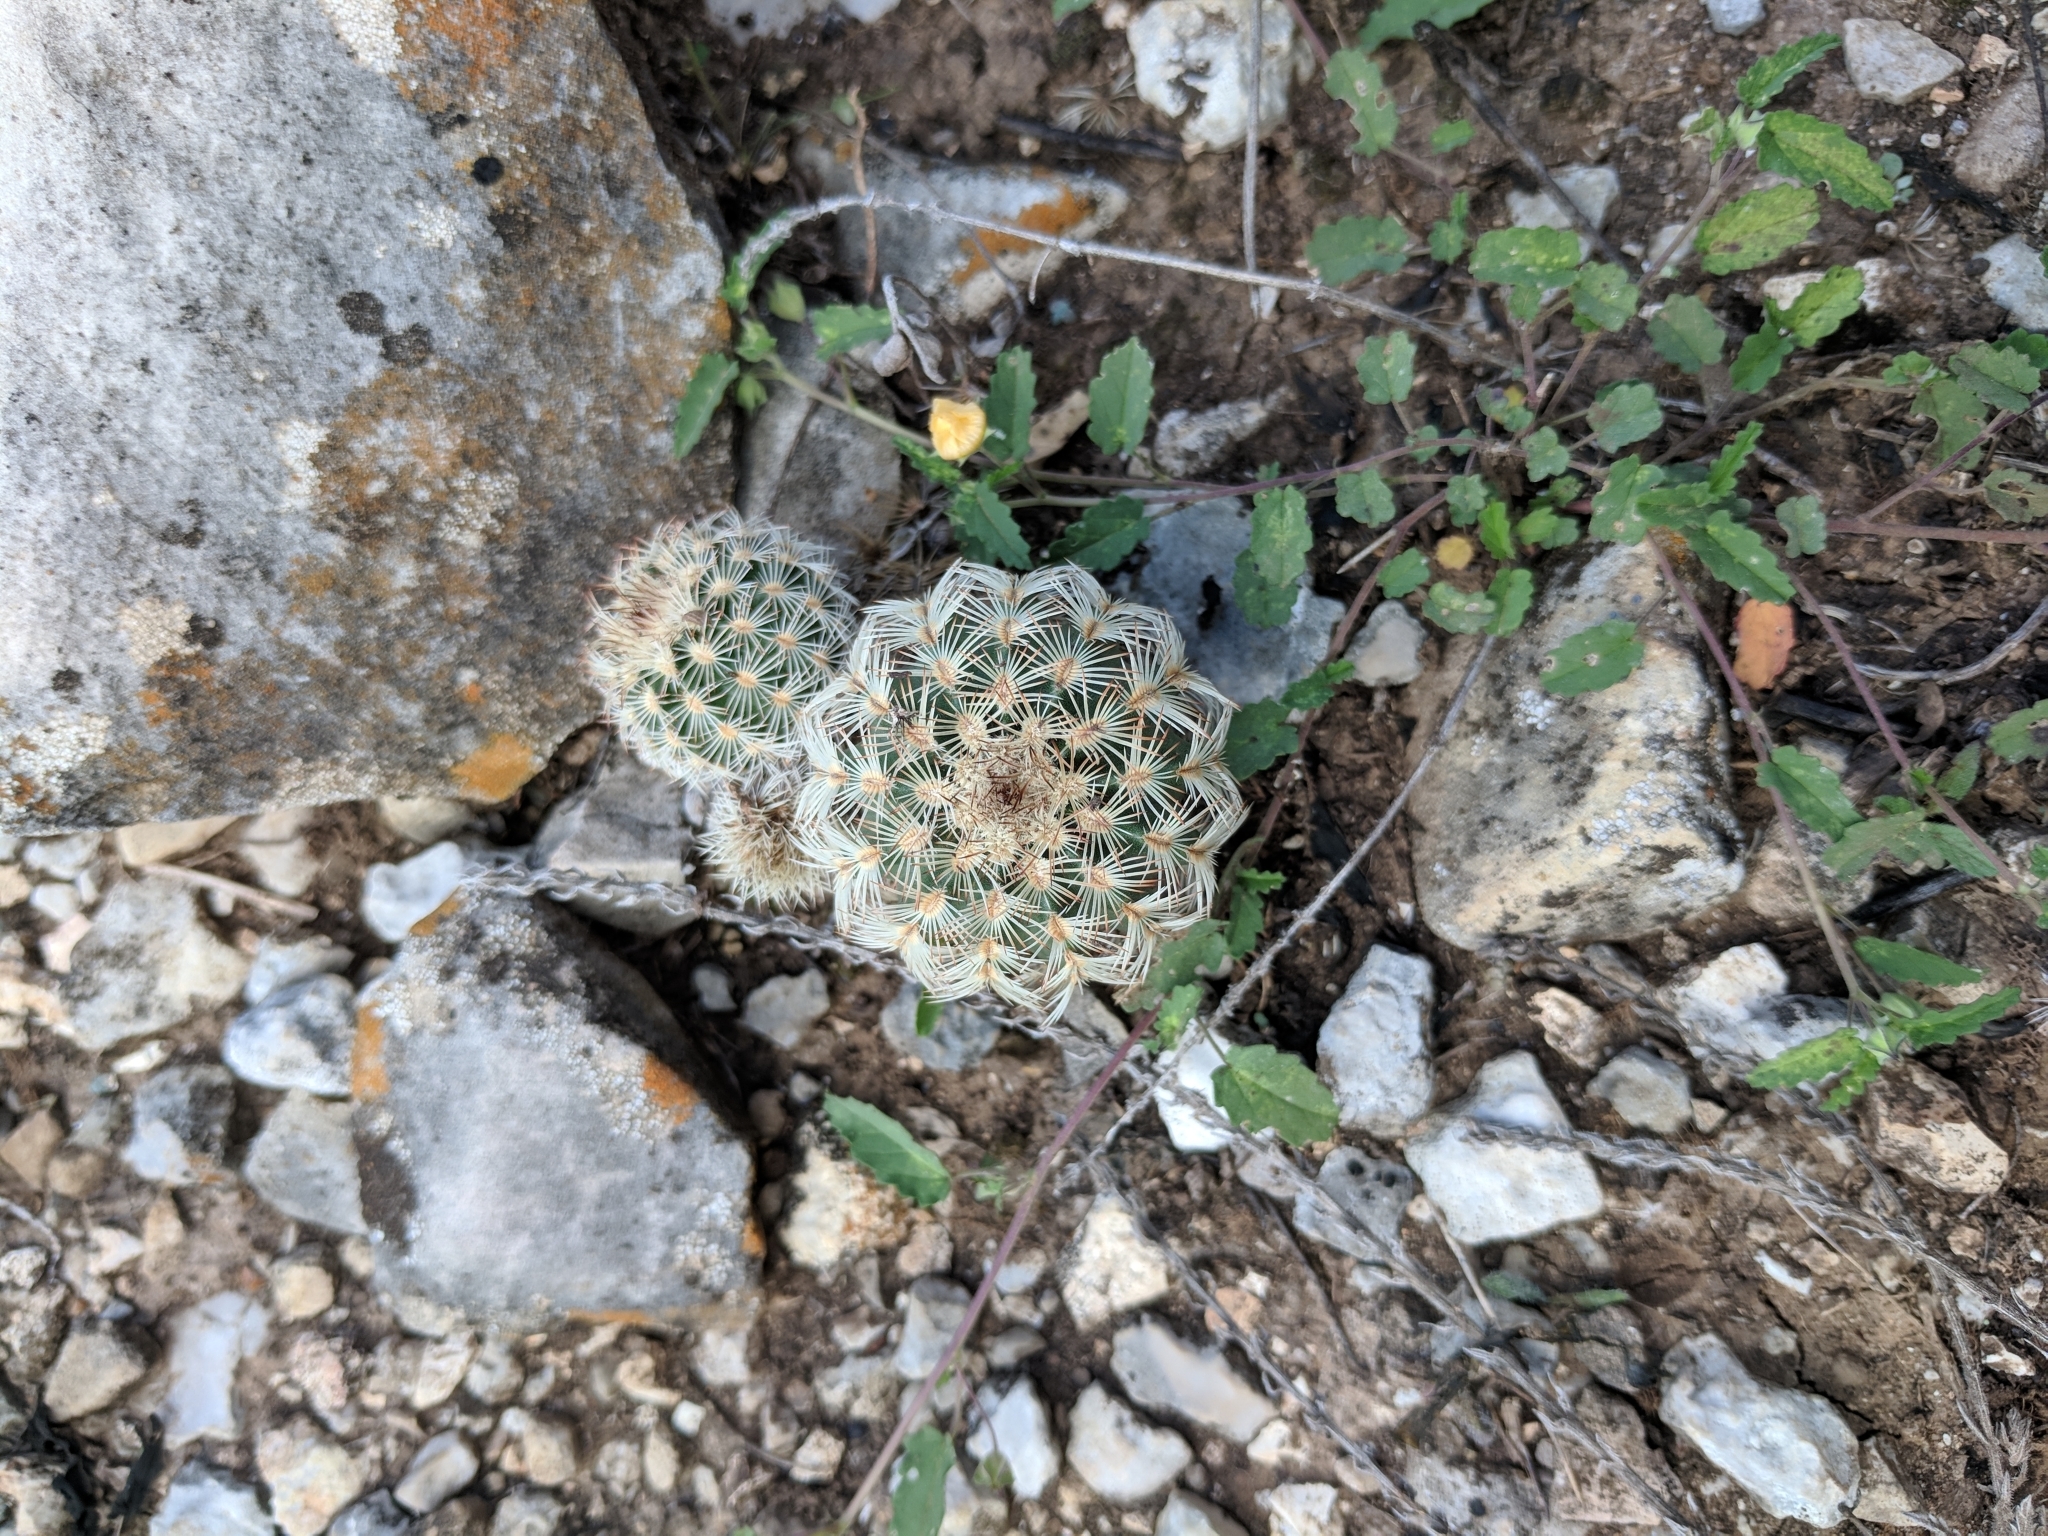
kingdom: Plantae
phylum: Tracheophyta
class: Magnoliopsida
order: Caryophyllales
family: Cactaceae
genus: Echinocereus
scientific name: Echinocereus reichenbachii
